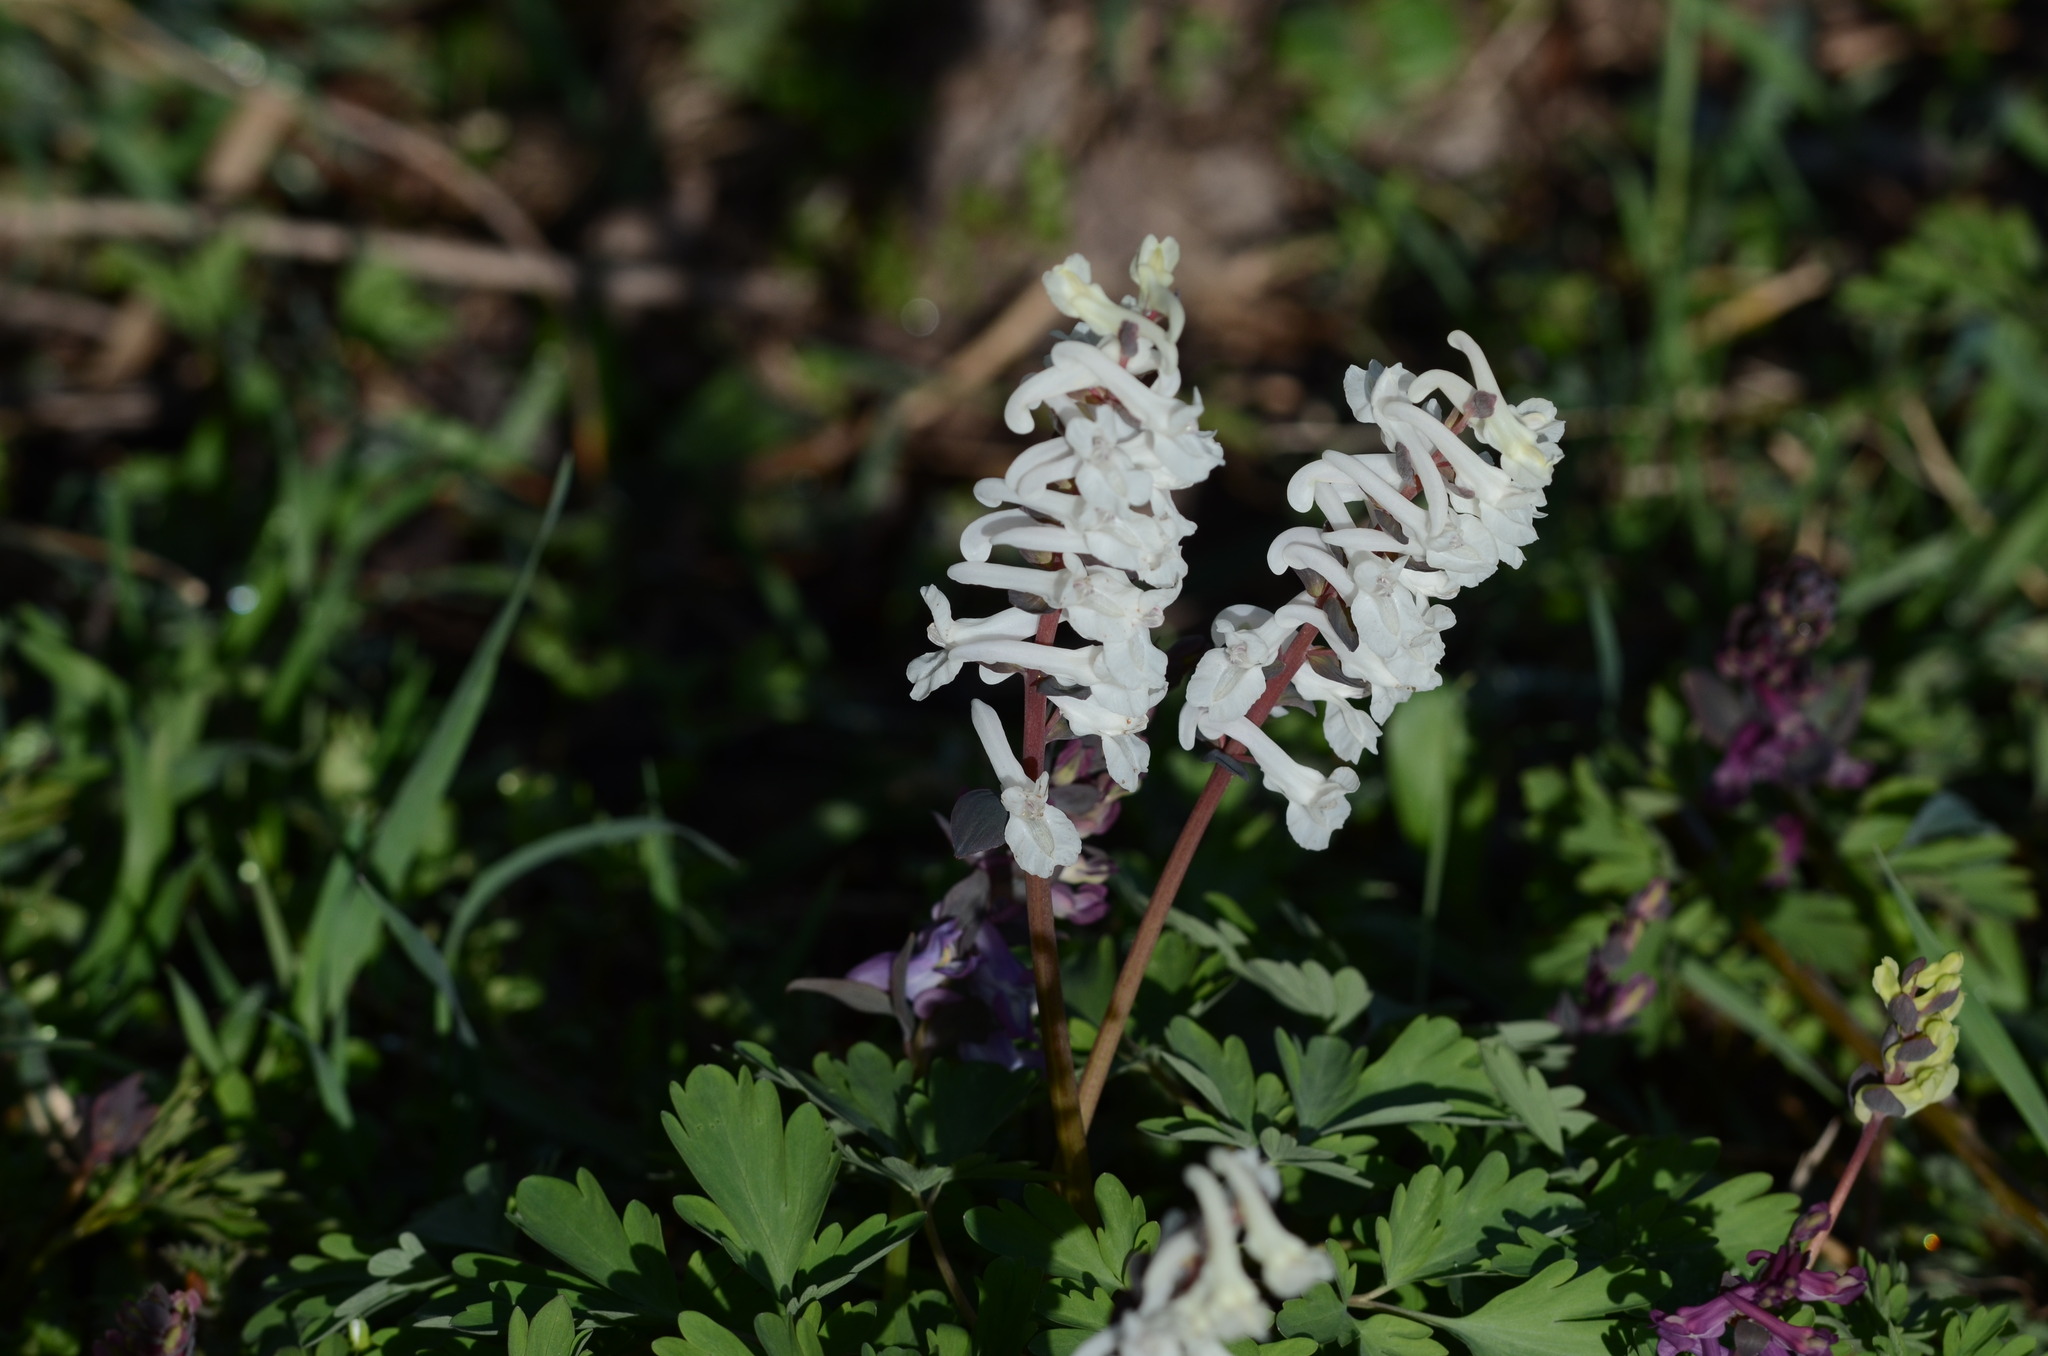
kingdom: Plantae
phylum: Tracheophyta
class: Magnoliopsida
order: Ranunculales
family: Papaveraceae
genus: Corydalis
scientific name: Corydalis cava
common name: Hollowroot
